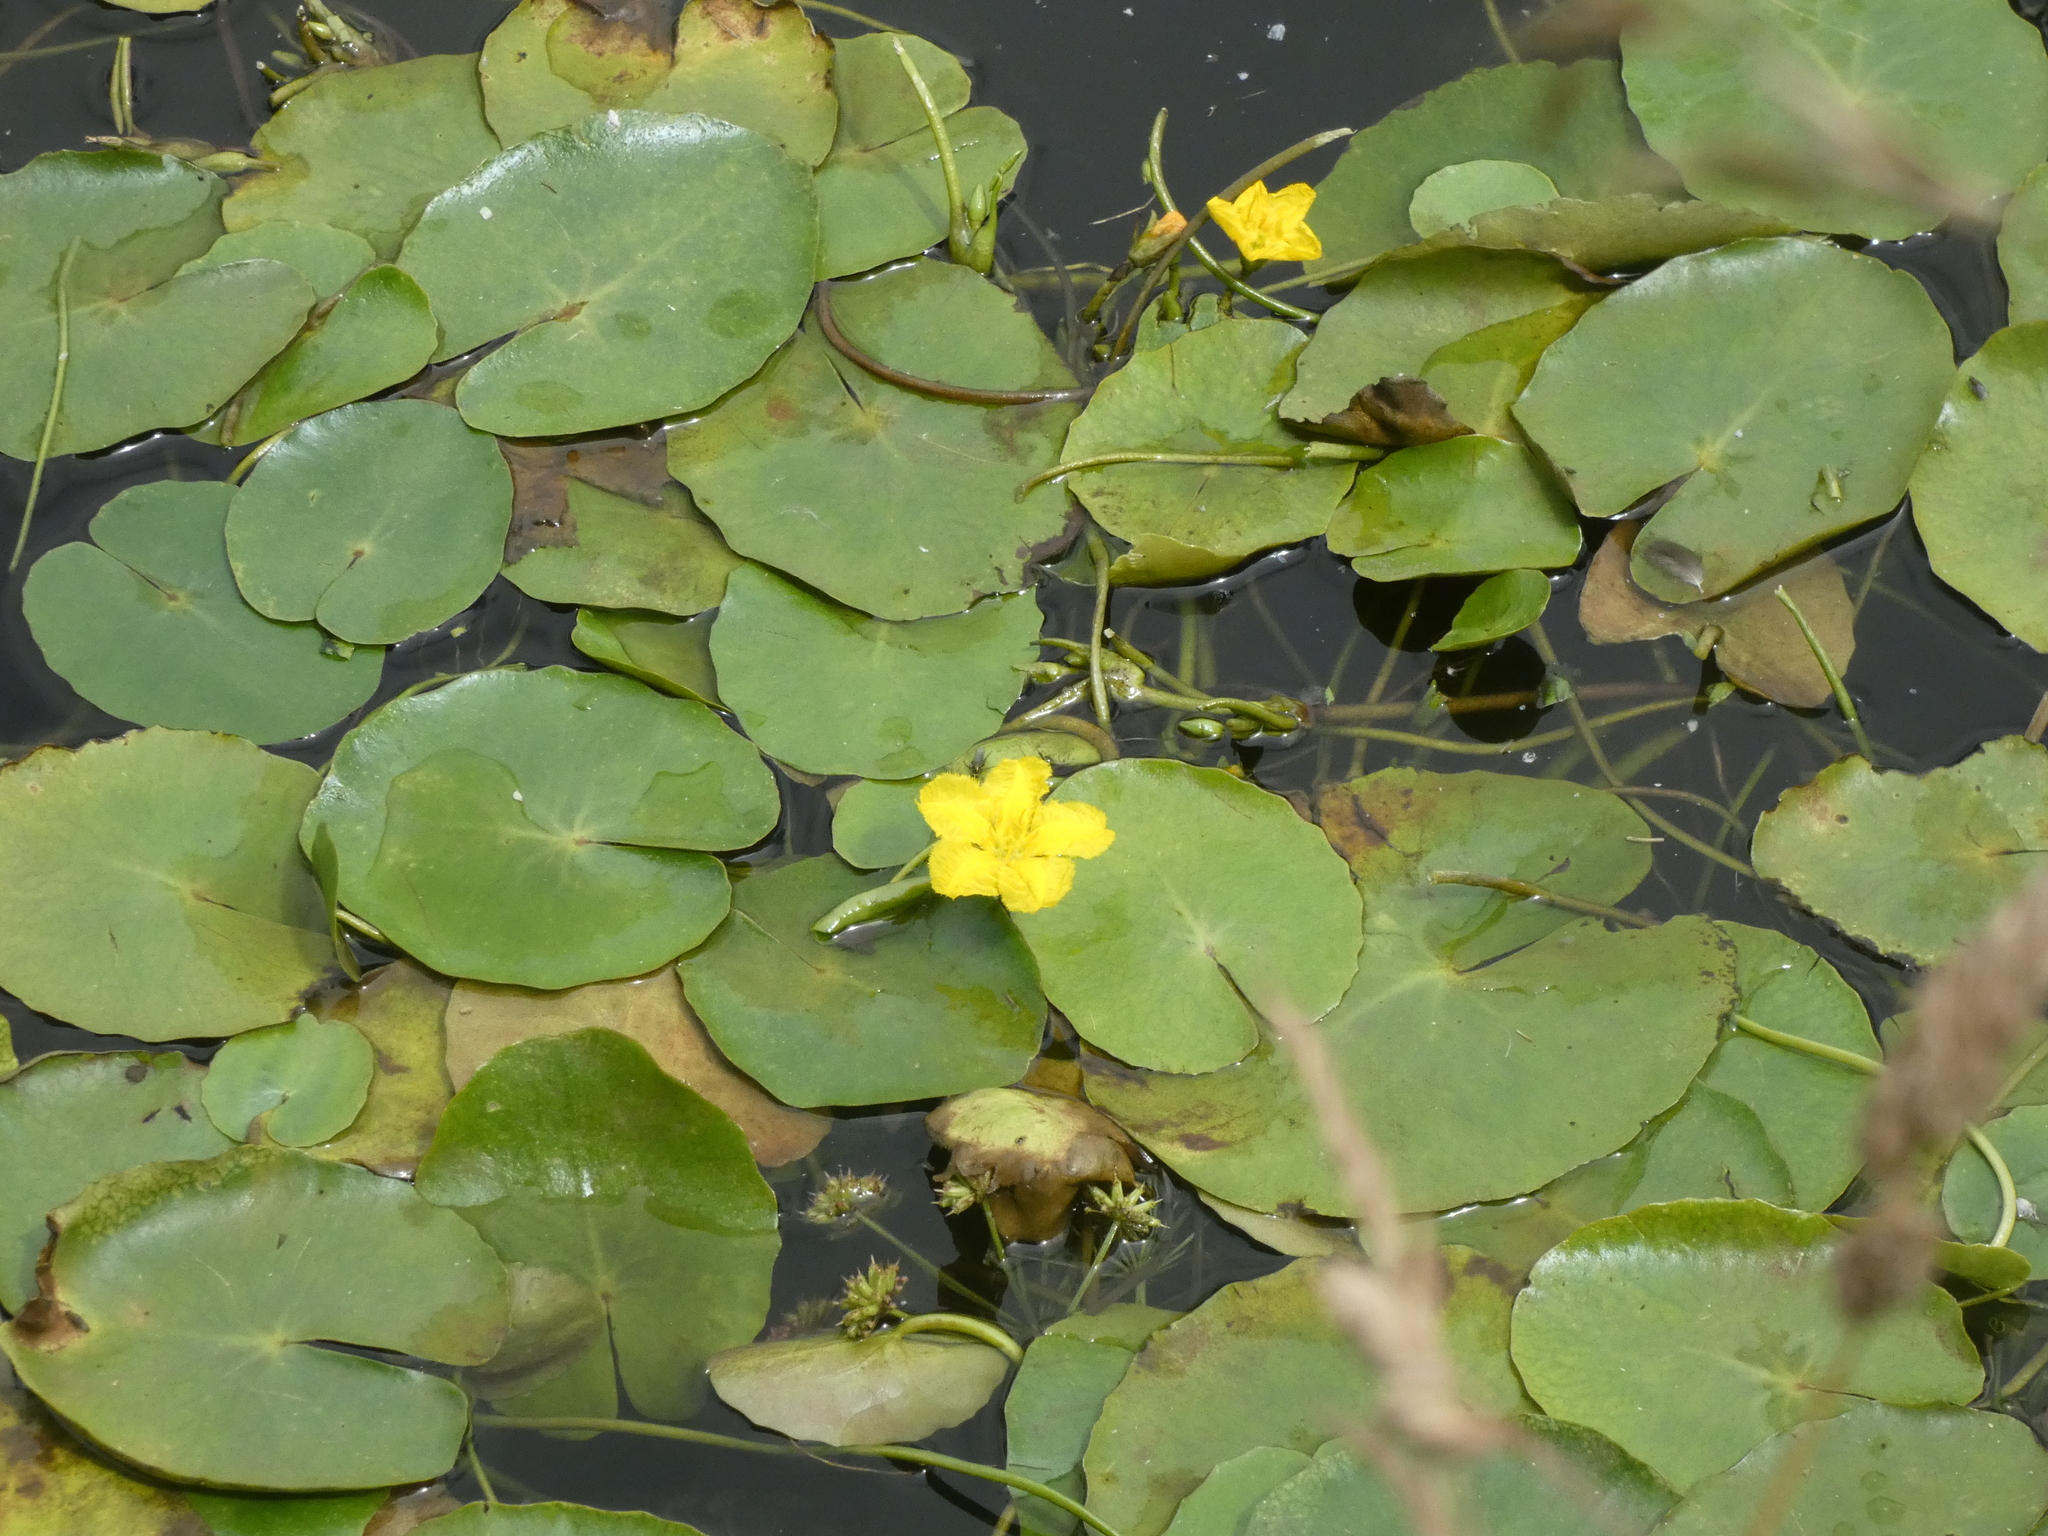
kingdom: Plantae
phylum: Tracheophyta
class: Magnoliopsida
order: Asterales
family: Menyanthaceae
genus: Nymphoides
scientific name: Nymphoides peltata
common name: Fringed water-lily
